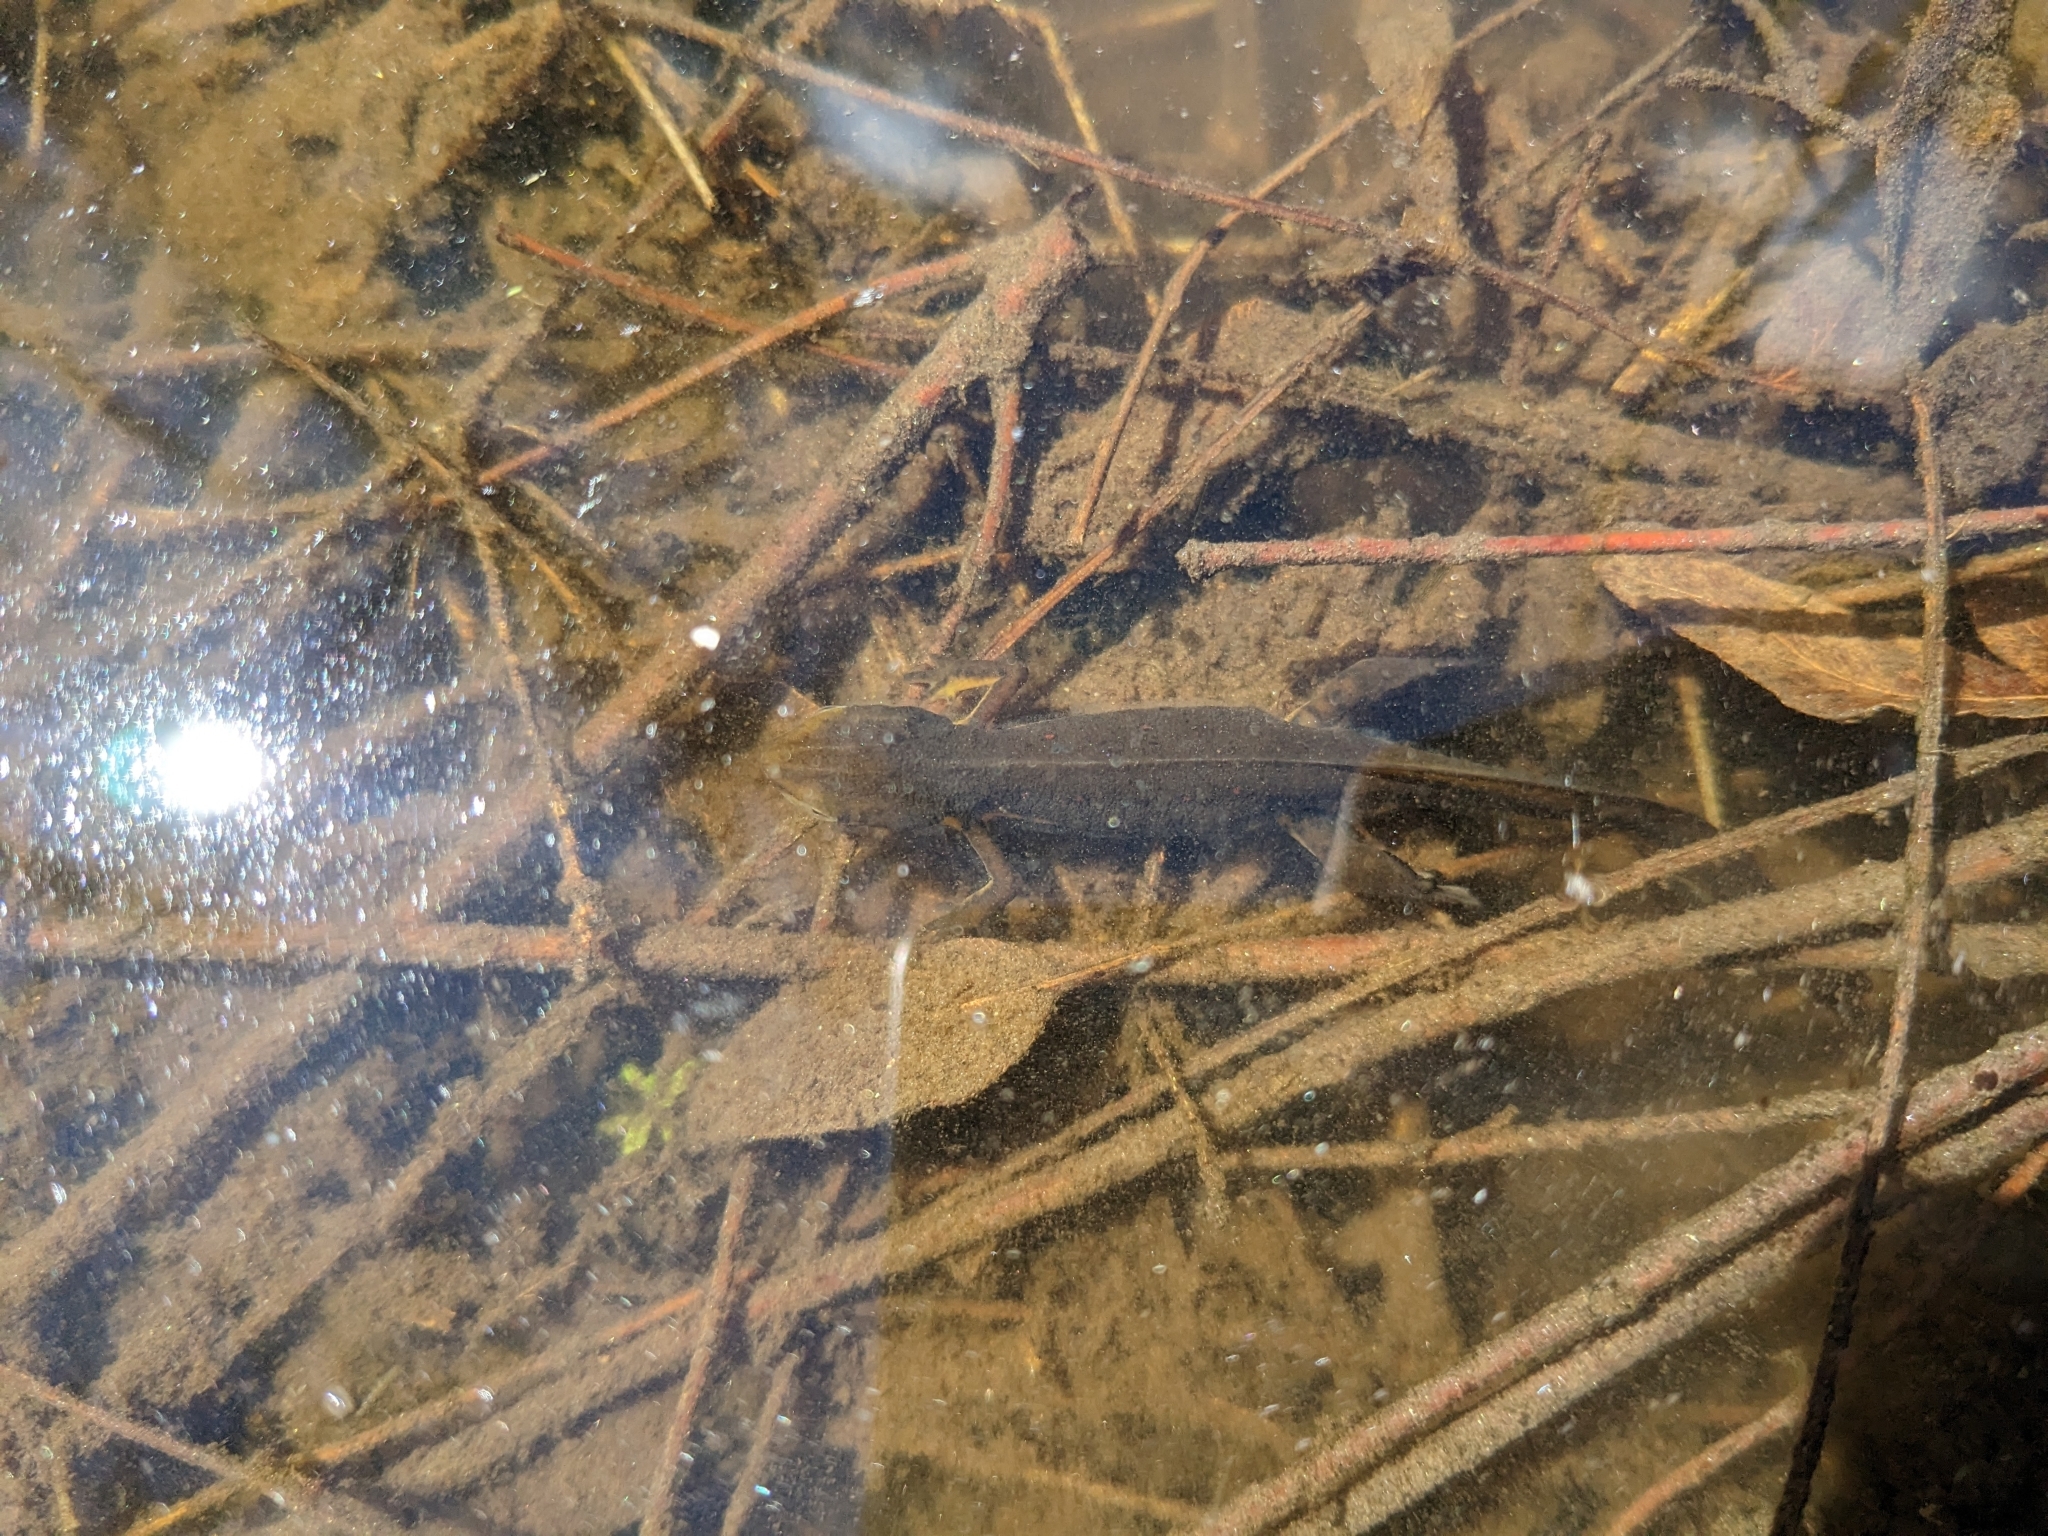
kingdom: Animalia
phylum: Chordata
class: Amphibia
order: Caudata
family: Salamandridae
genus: Notophthalmus
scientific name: Notophthalmus viridescens
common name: Eastern newt
